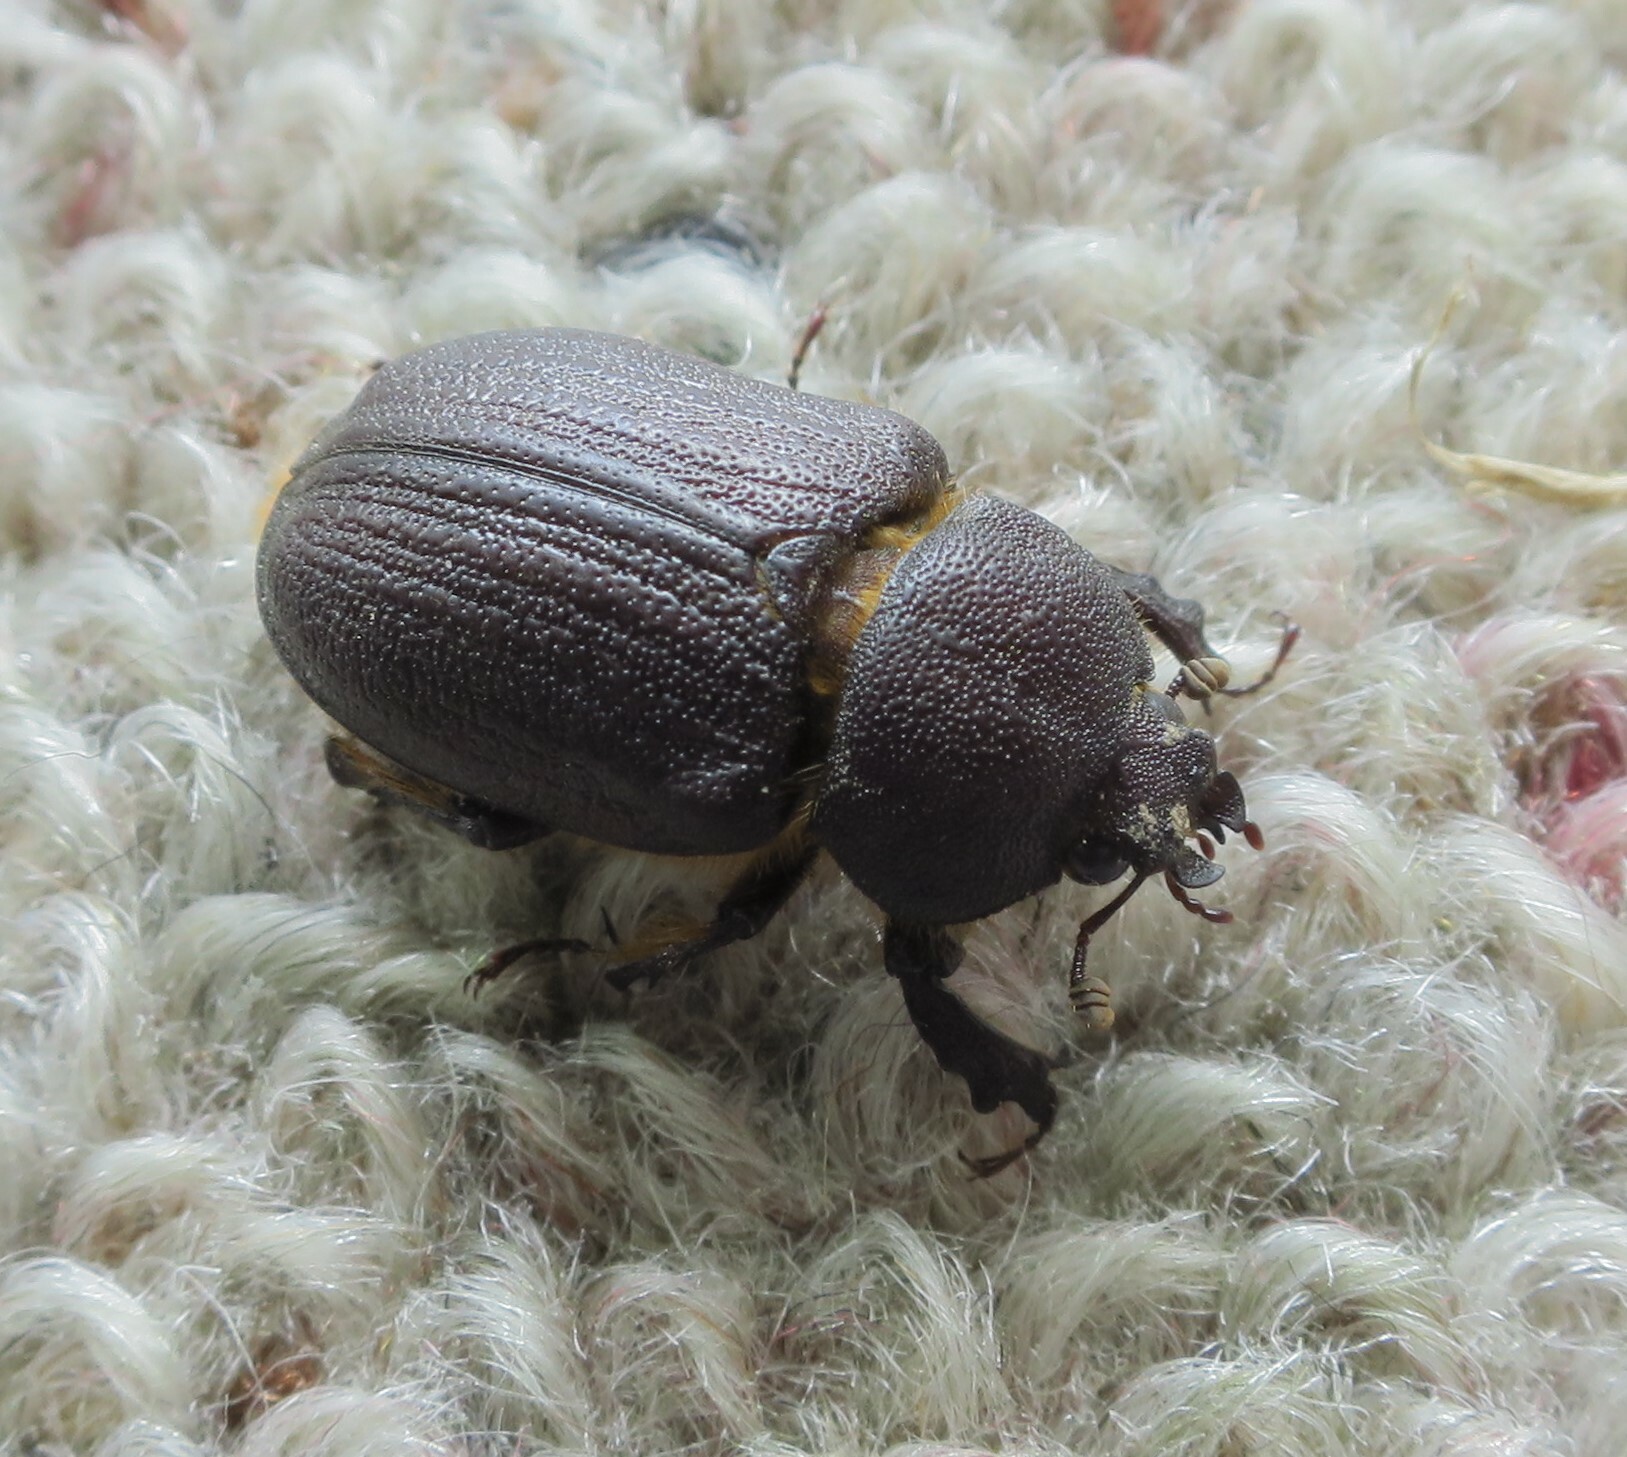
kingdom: Animalia
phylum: Arthropoda
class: Insecta
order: Coleoptera
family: Lucanidae
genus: Dendroblax
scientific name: Dendroblax earlii
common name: Earl's stag beetle
